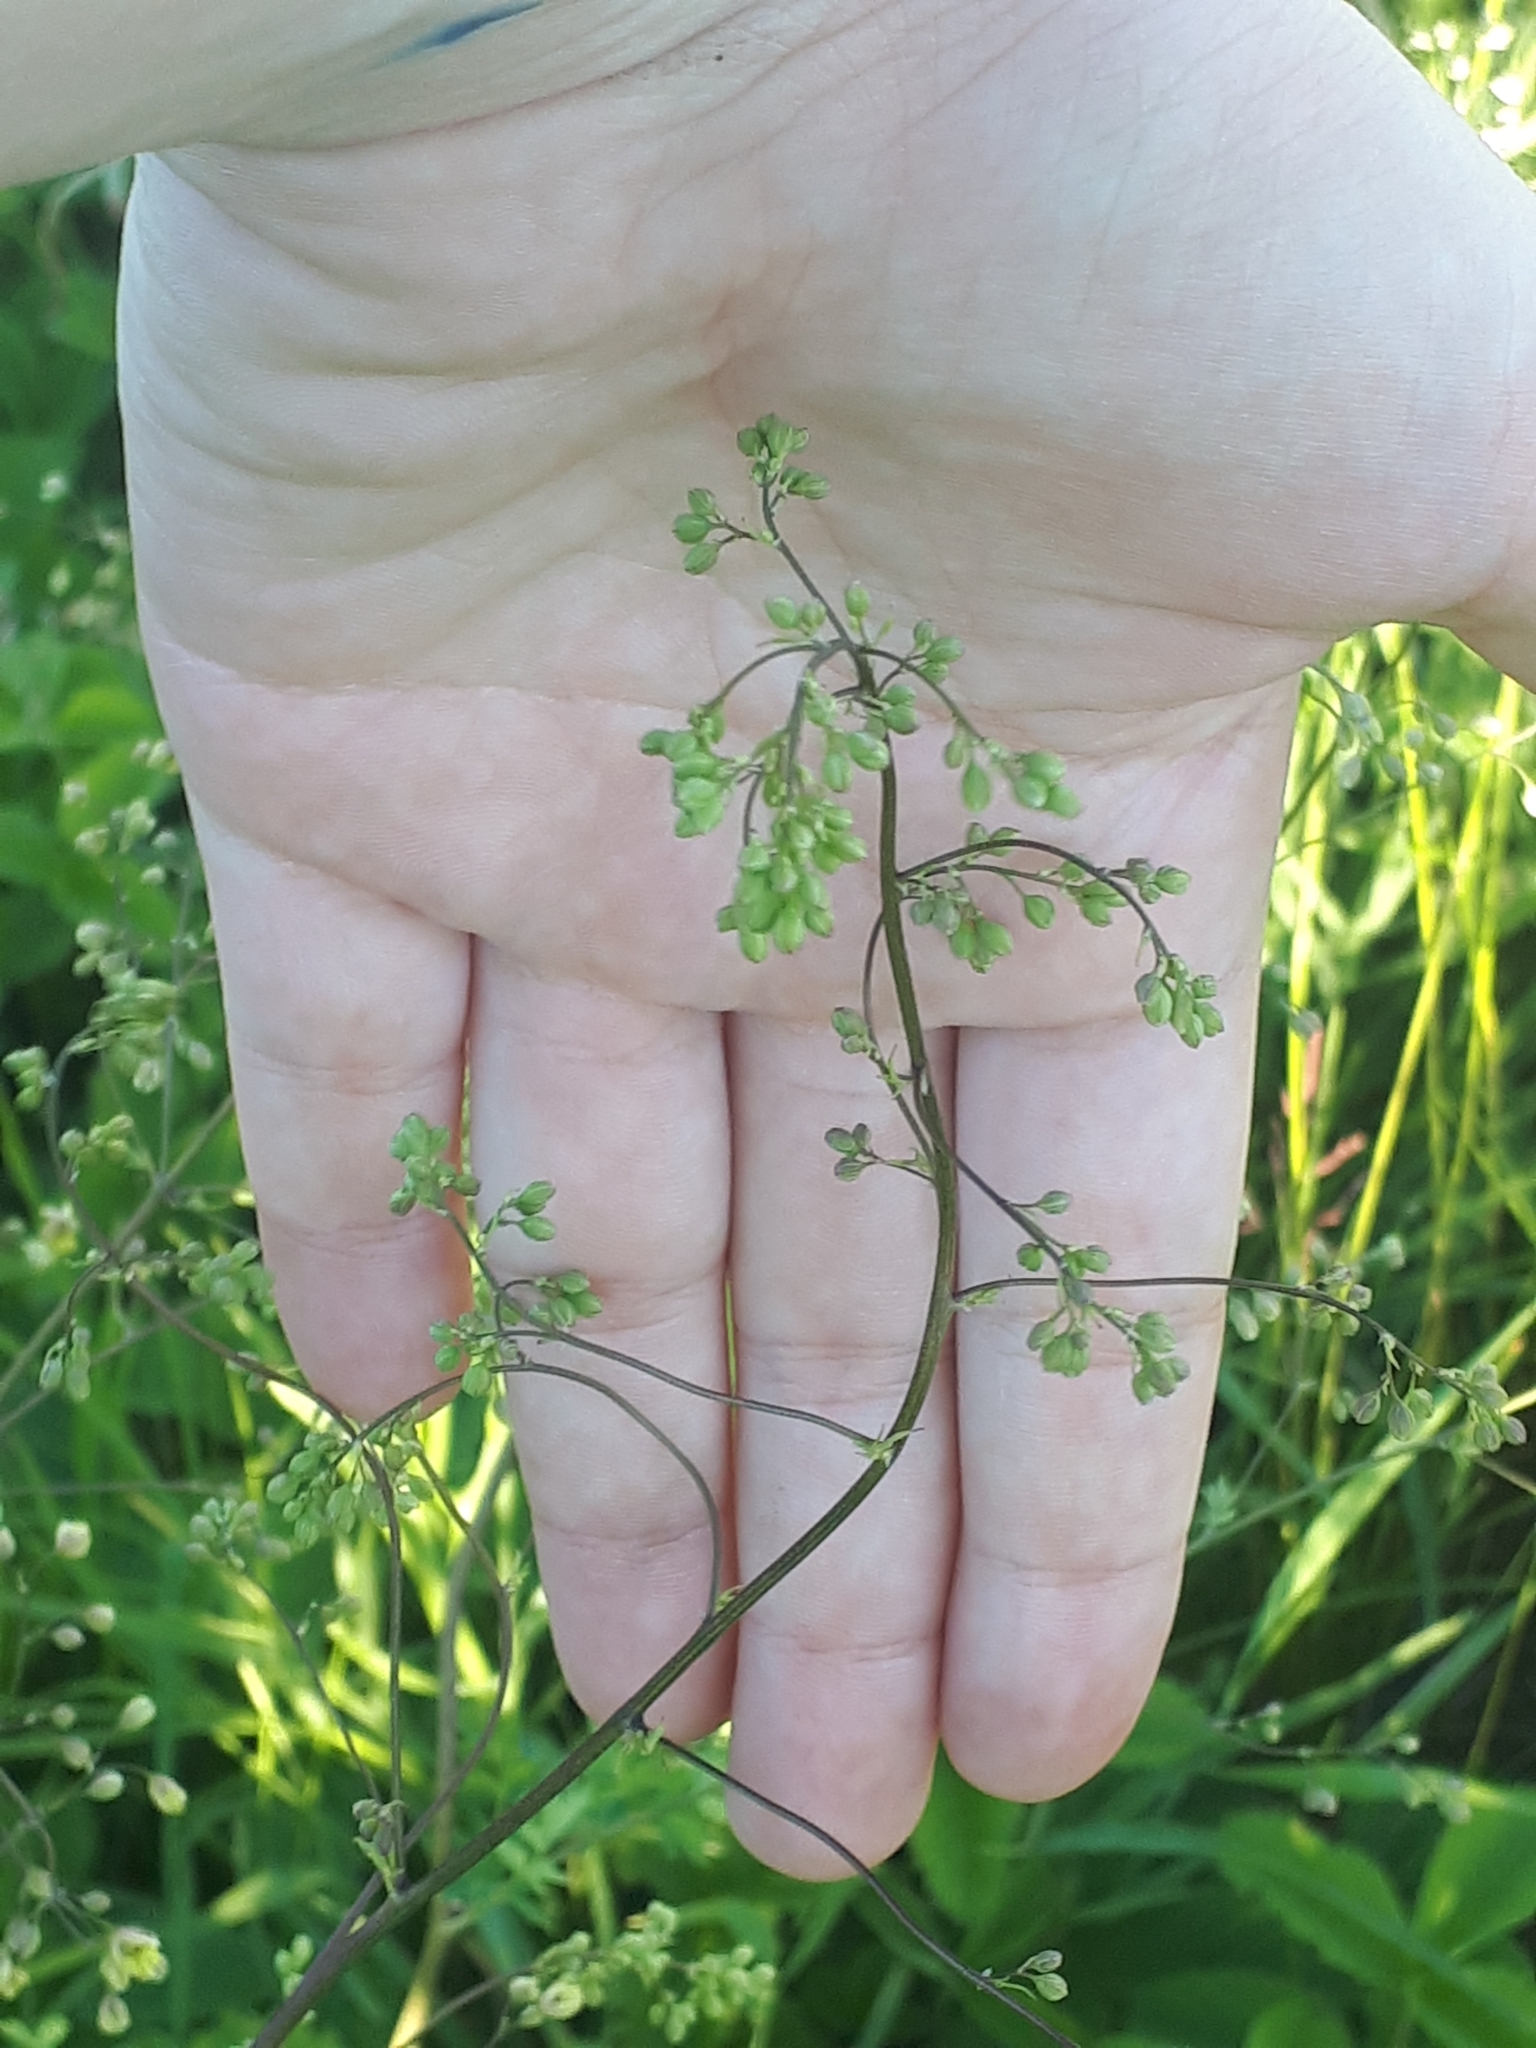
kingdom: Plantae
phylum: Tracheophyta
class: Magnoliopsida
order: Ranunculales
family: Ranunculaceae
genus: Thalictrum
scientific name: Thalictrum minus
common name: Lesser meadow-rue
